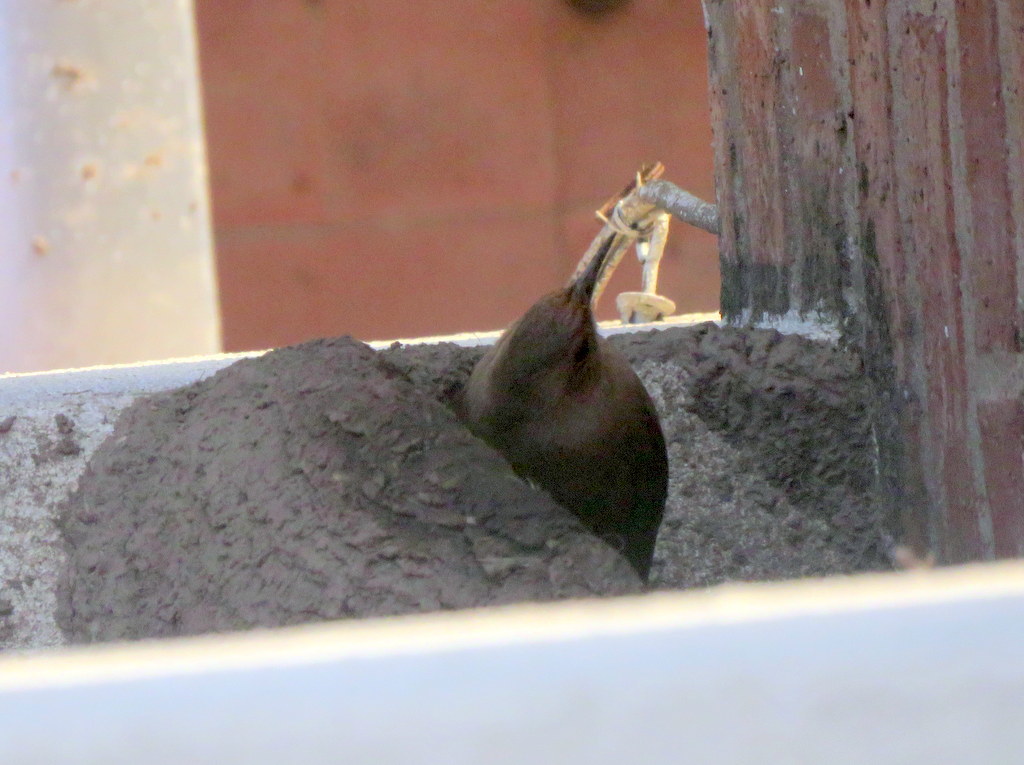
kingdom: Animalia
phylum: Chordata
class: Aves
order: Passeriformes
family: Furnariidae
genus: Furnarius
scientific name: Furnarius rufus
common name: Rufous hornero
